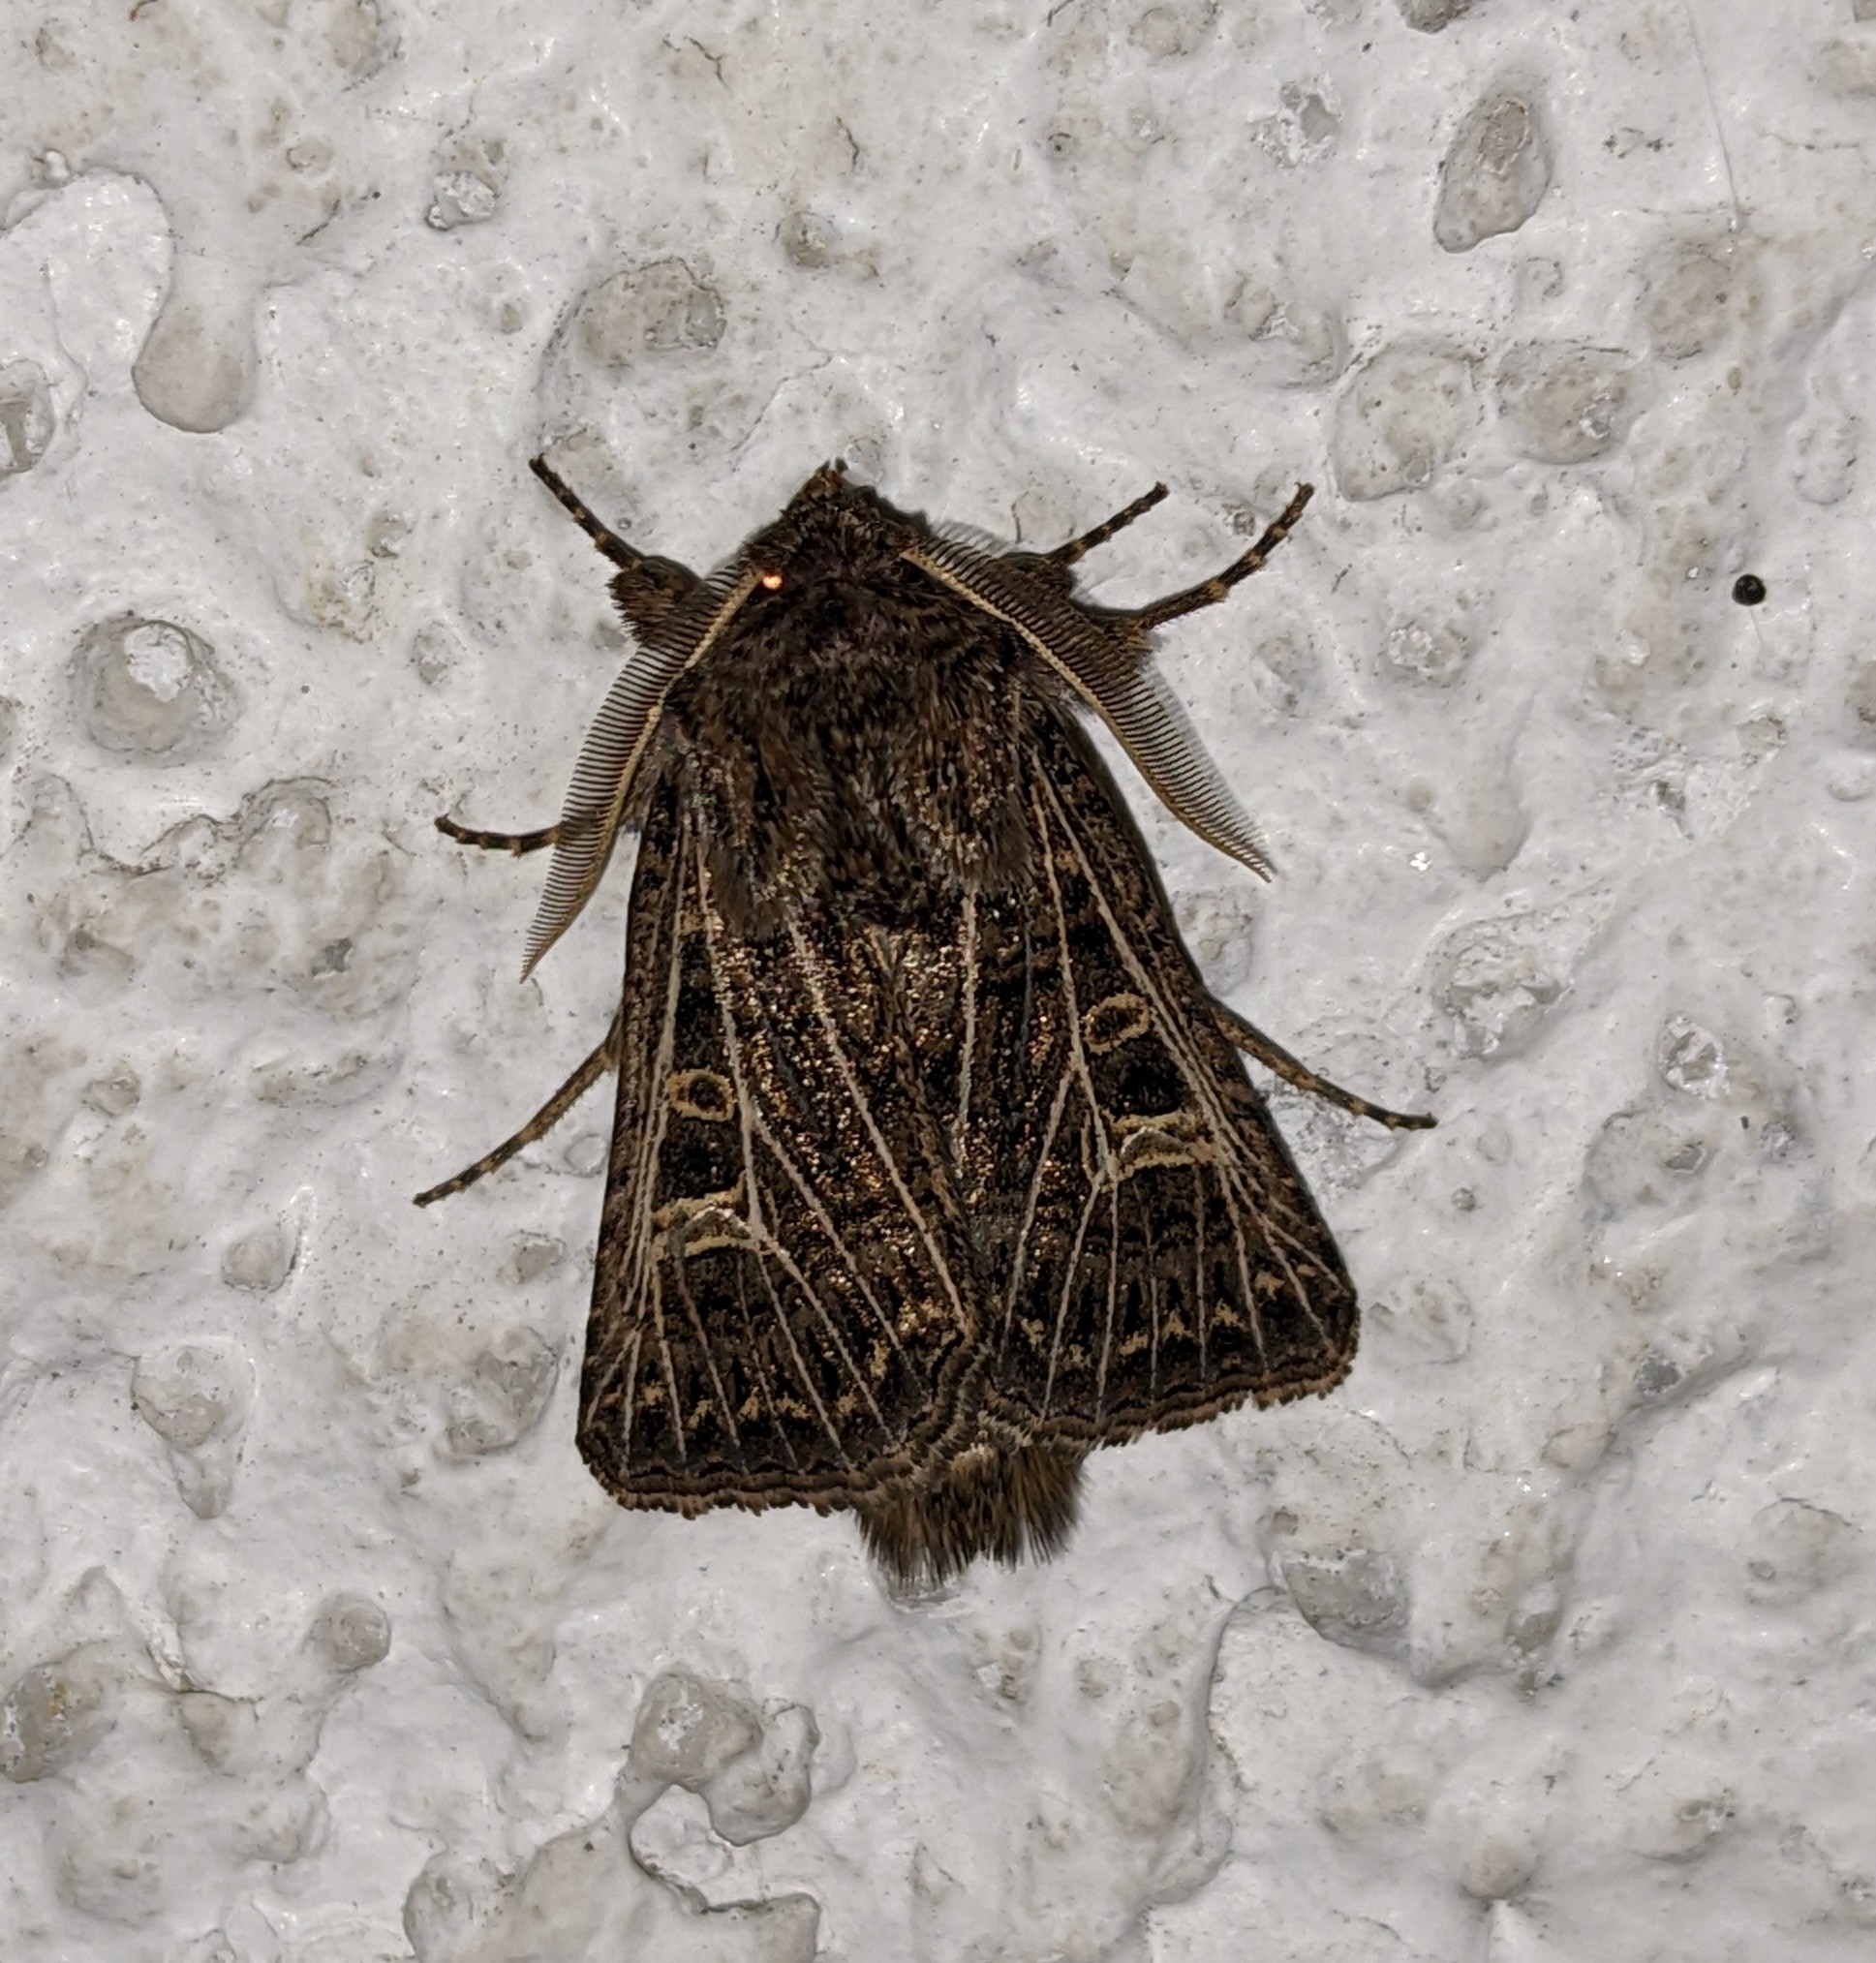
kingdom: Animalia
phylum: Arthropoda
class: Insecta
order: Lepidoptera
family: Noctuidae
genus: Tholera
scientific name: Tholera decimalis
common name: Feathered gothic
